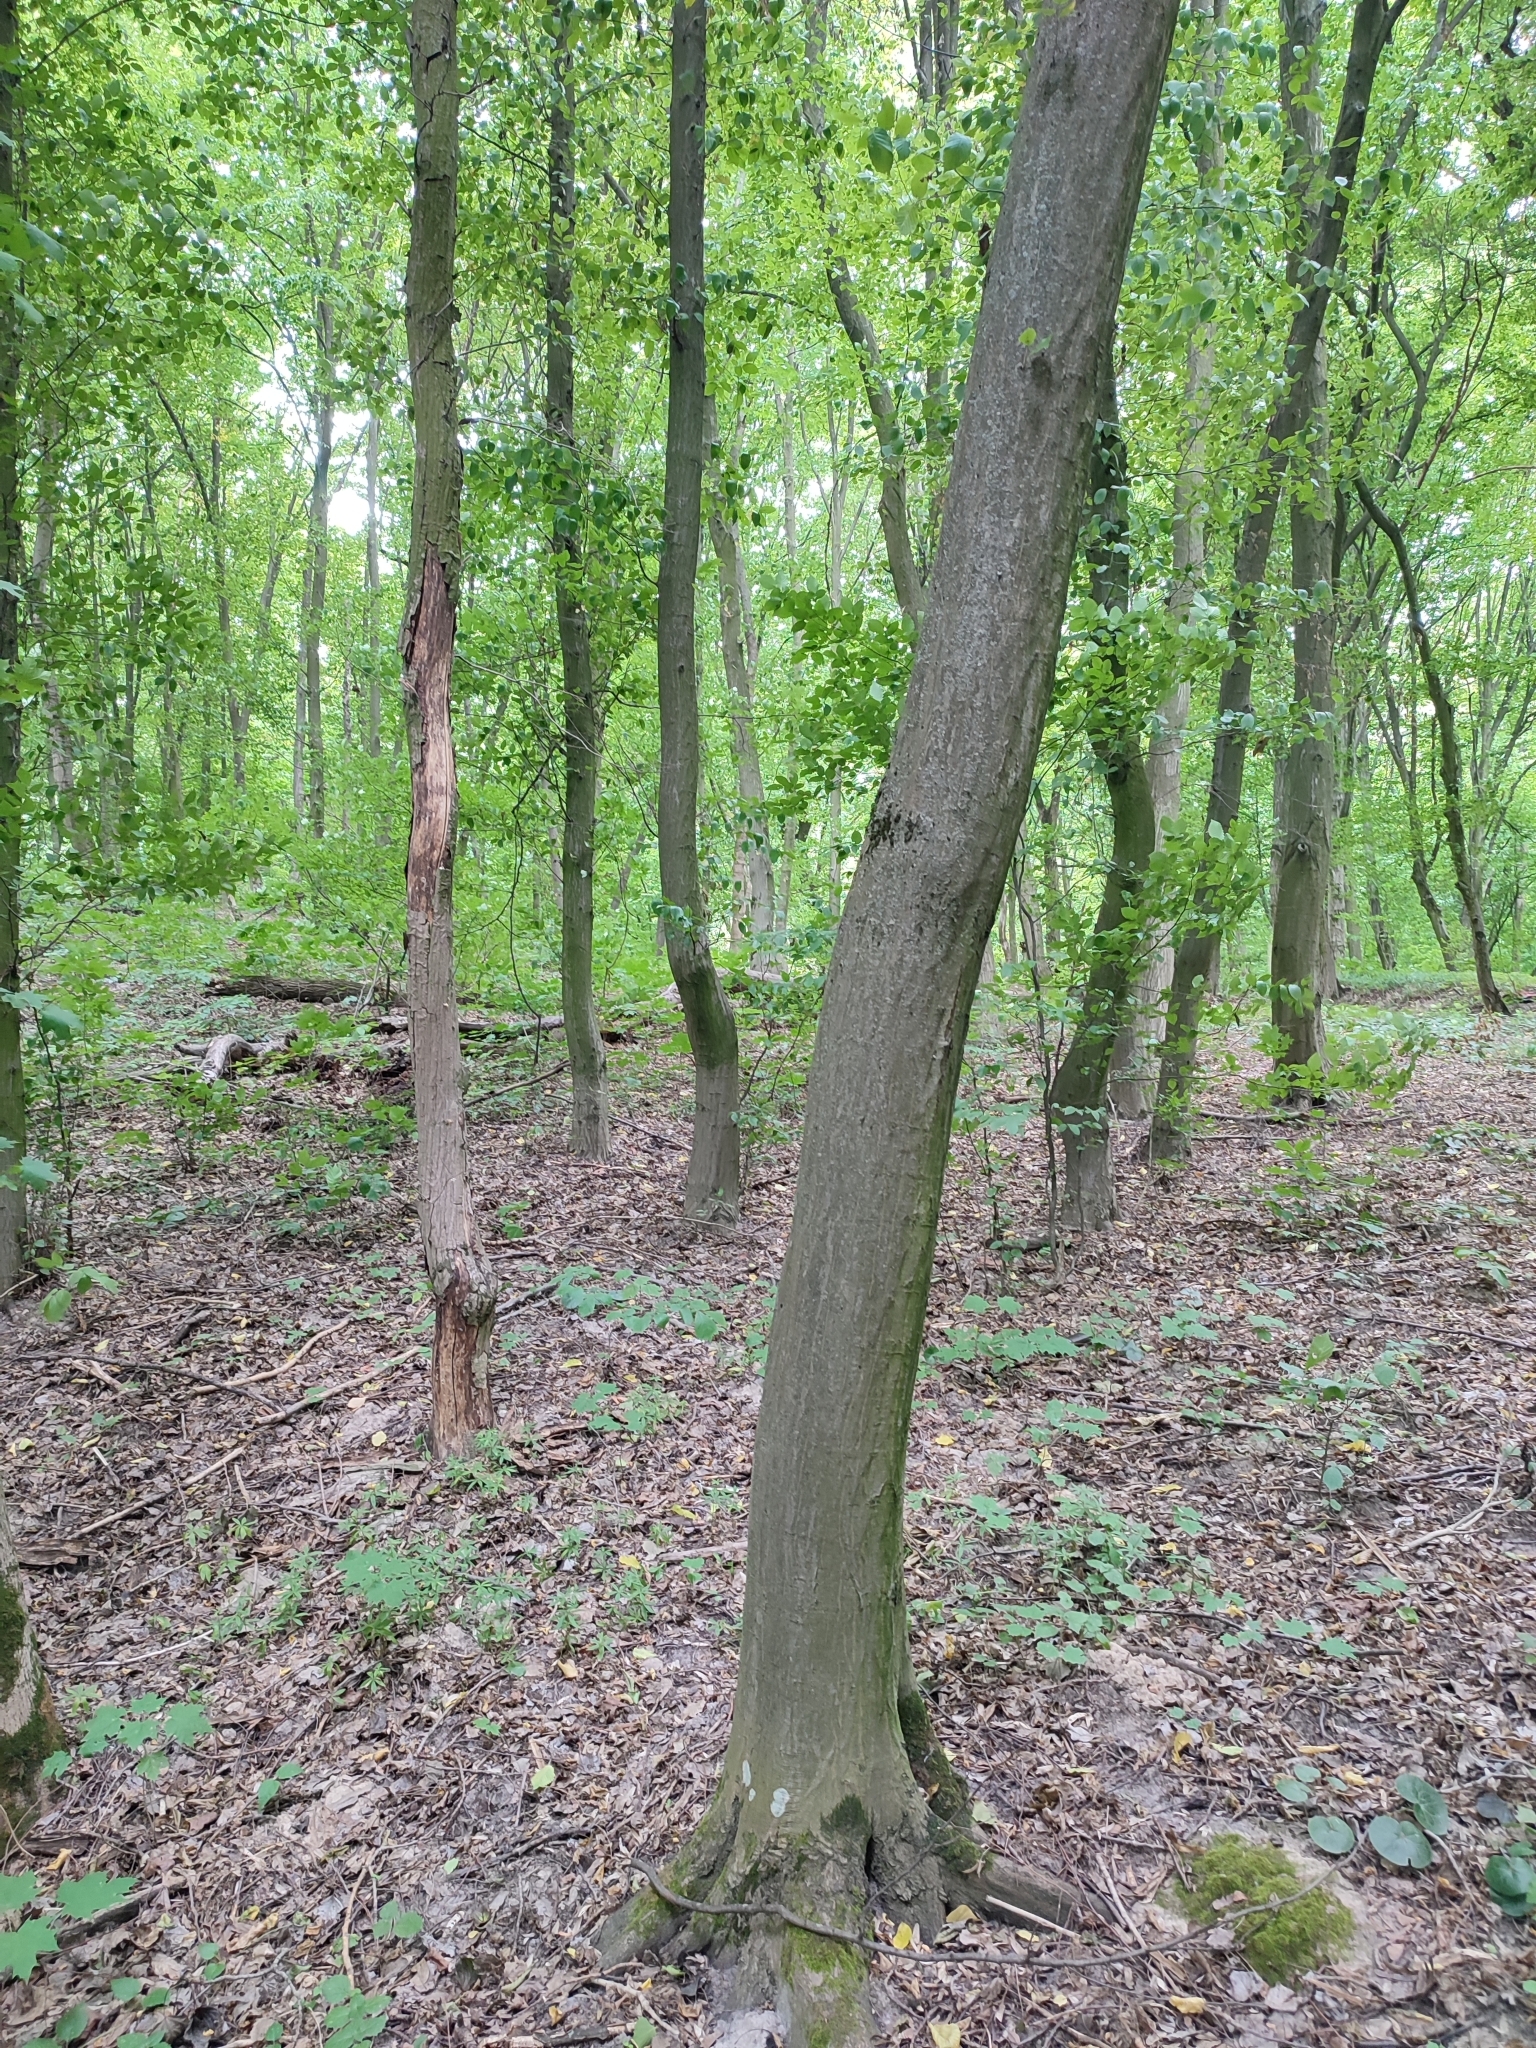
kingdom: Plantae
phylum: Tracheophyta
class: Magnoliopsida
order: Fagales
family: Betulaceae
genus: Carpinus
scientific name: Carpinus betulus
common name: Hornbeam
